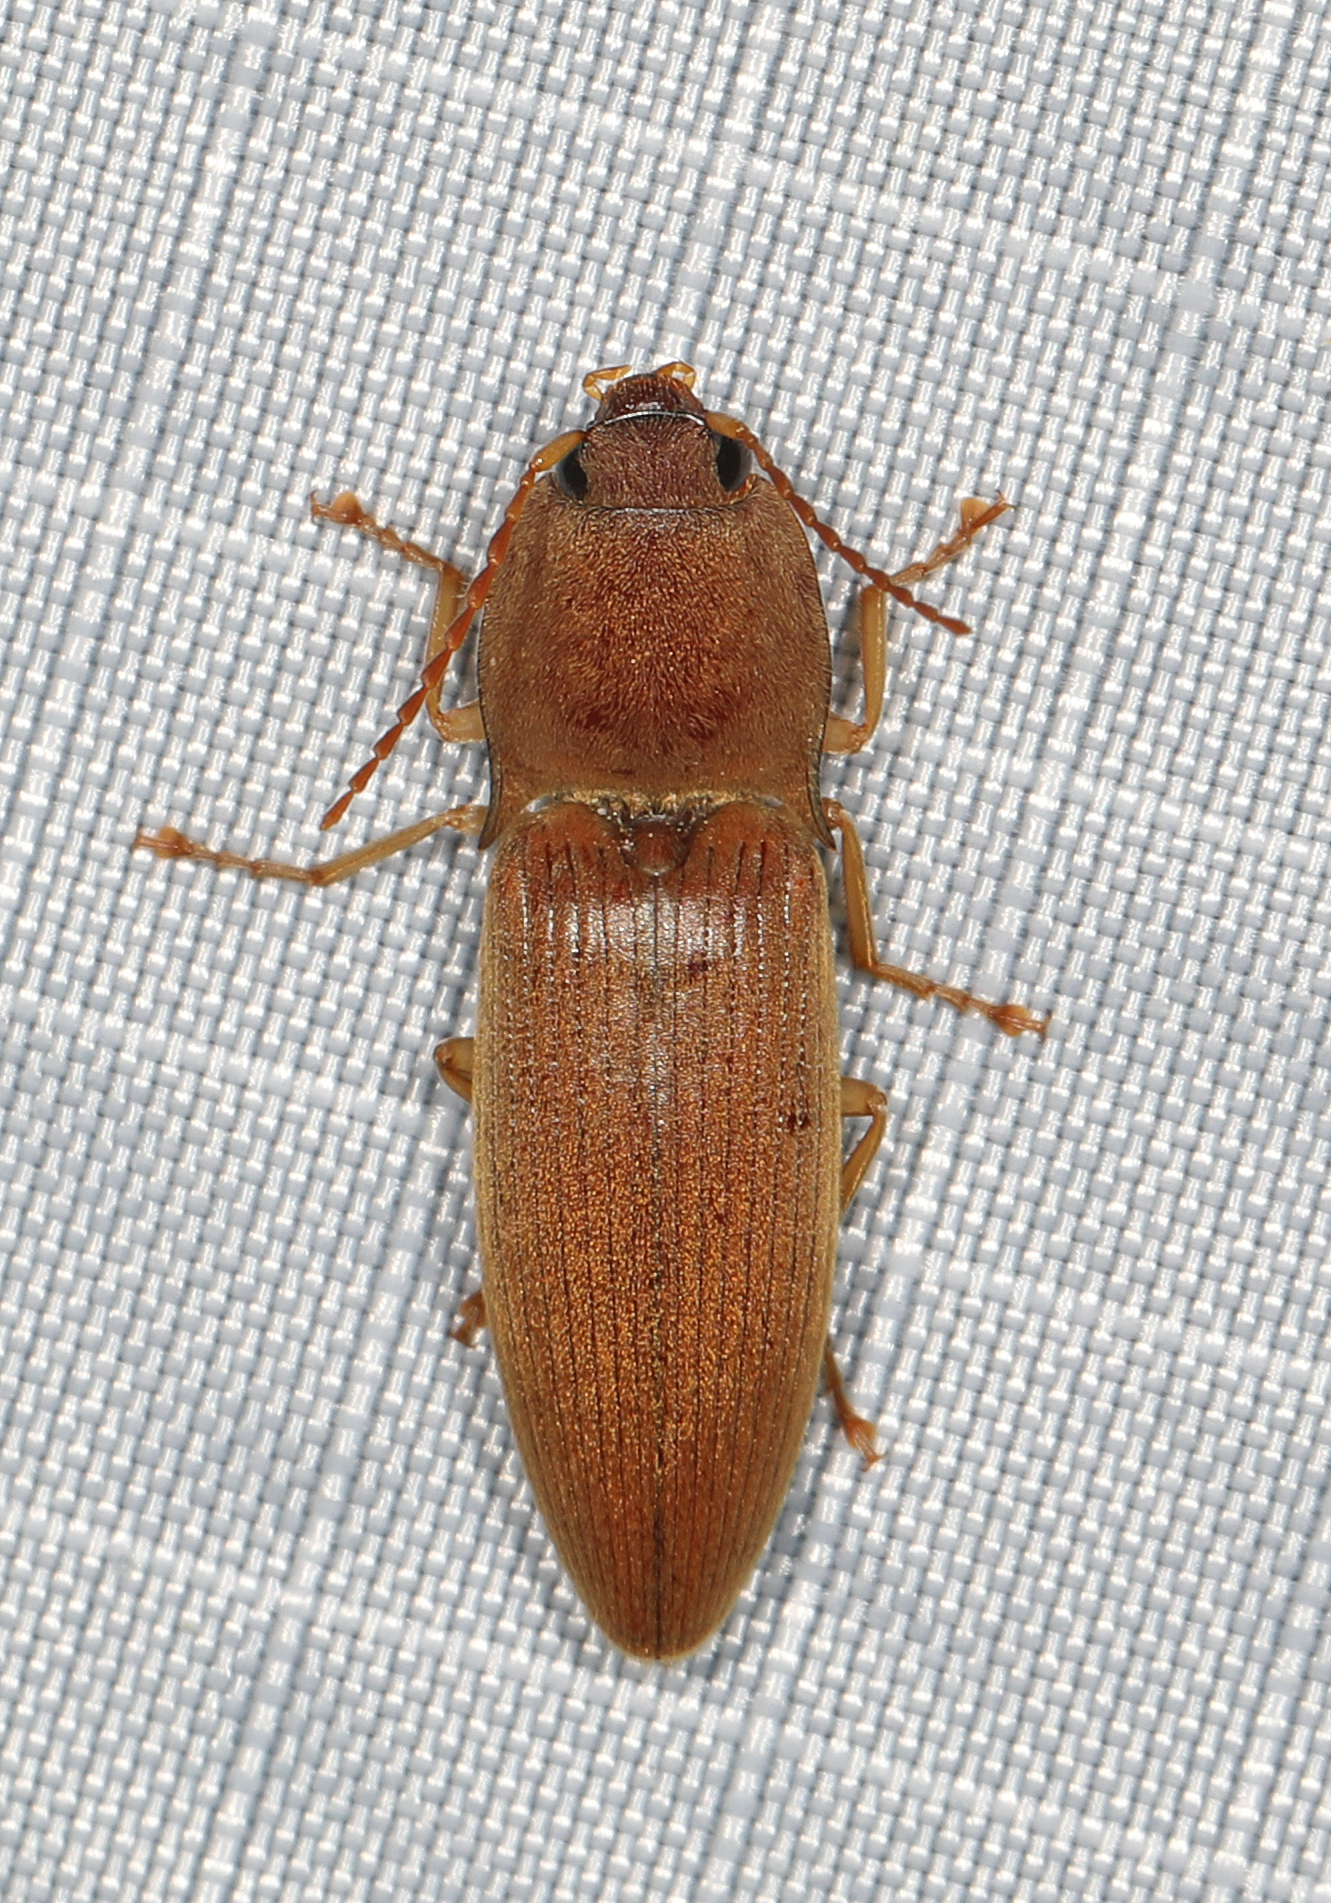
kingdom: Animalia
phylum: Arthropoda
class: Insecta
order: Coleoptera
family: Elateridae
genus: Monocrepidius
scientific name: Monocrepidius lividus
